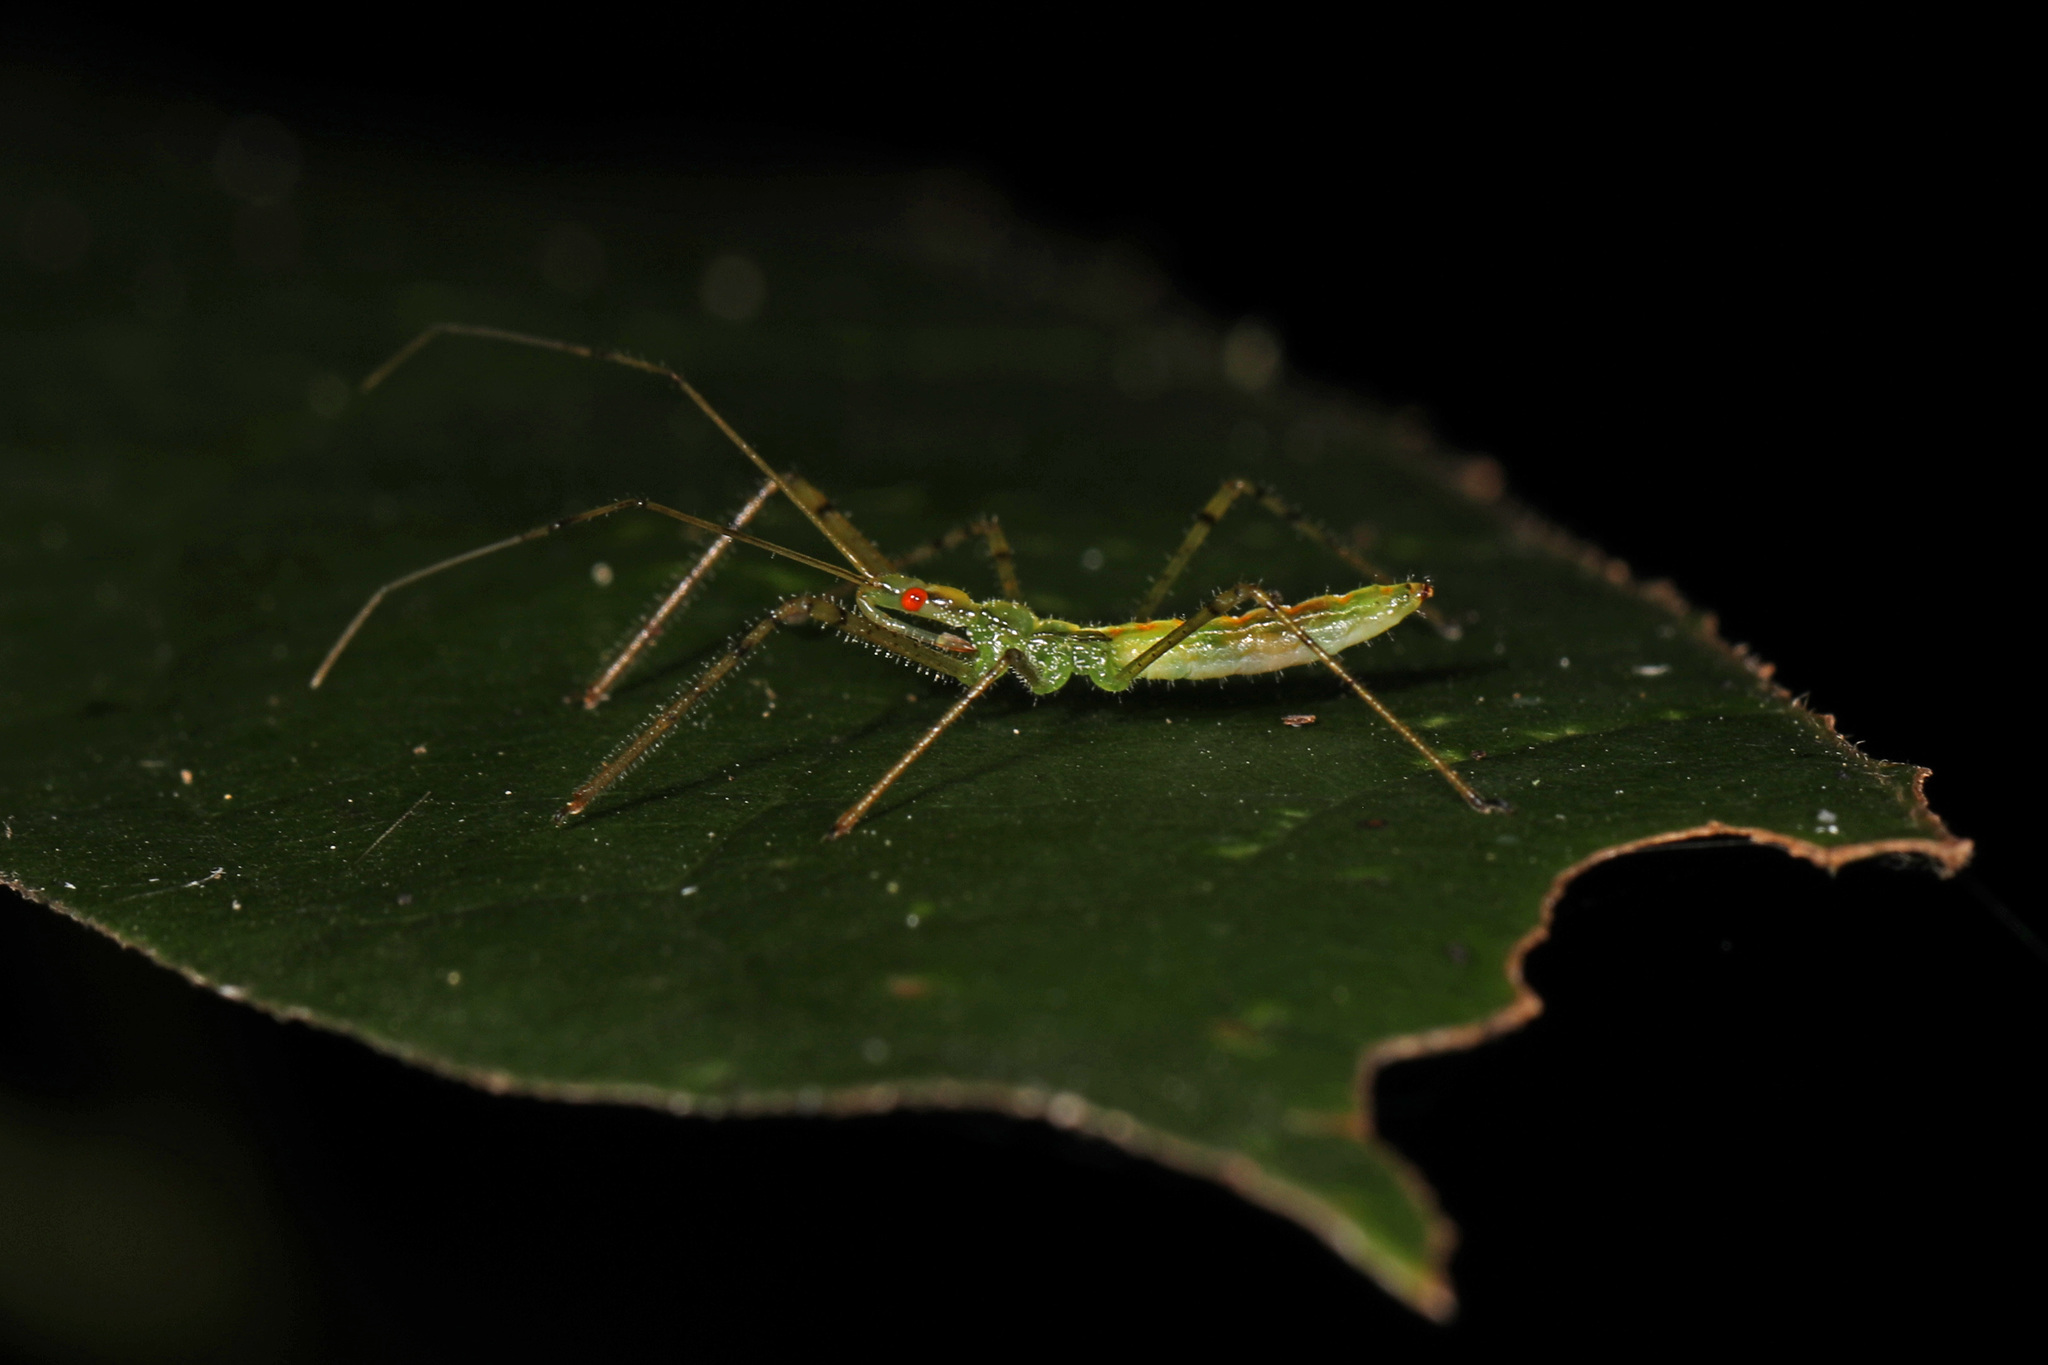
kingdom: Animalia
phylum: Arthropoda
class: Insecta
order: Hemiptera
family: Reduviidae
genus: Zelus
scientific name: Zelus luridus
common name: Pale green assassin bug
